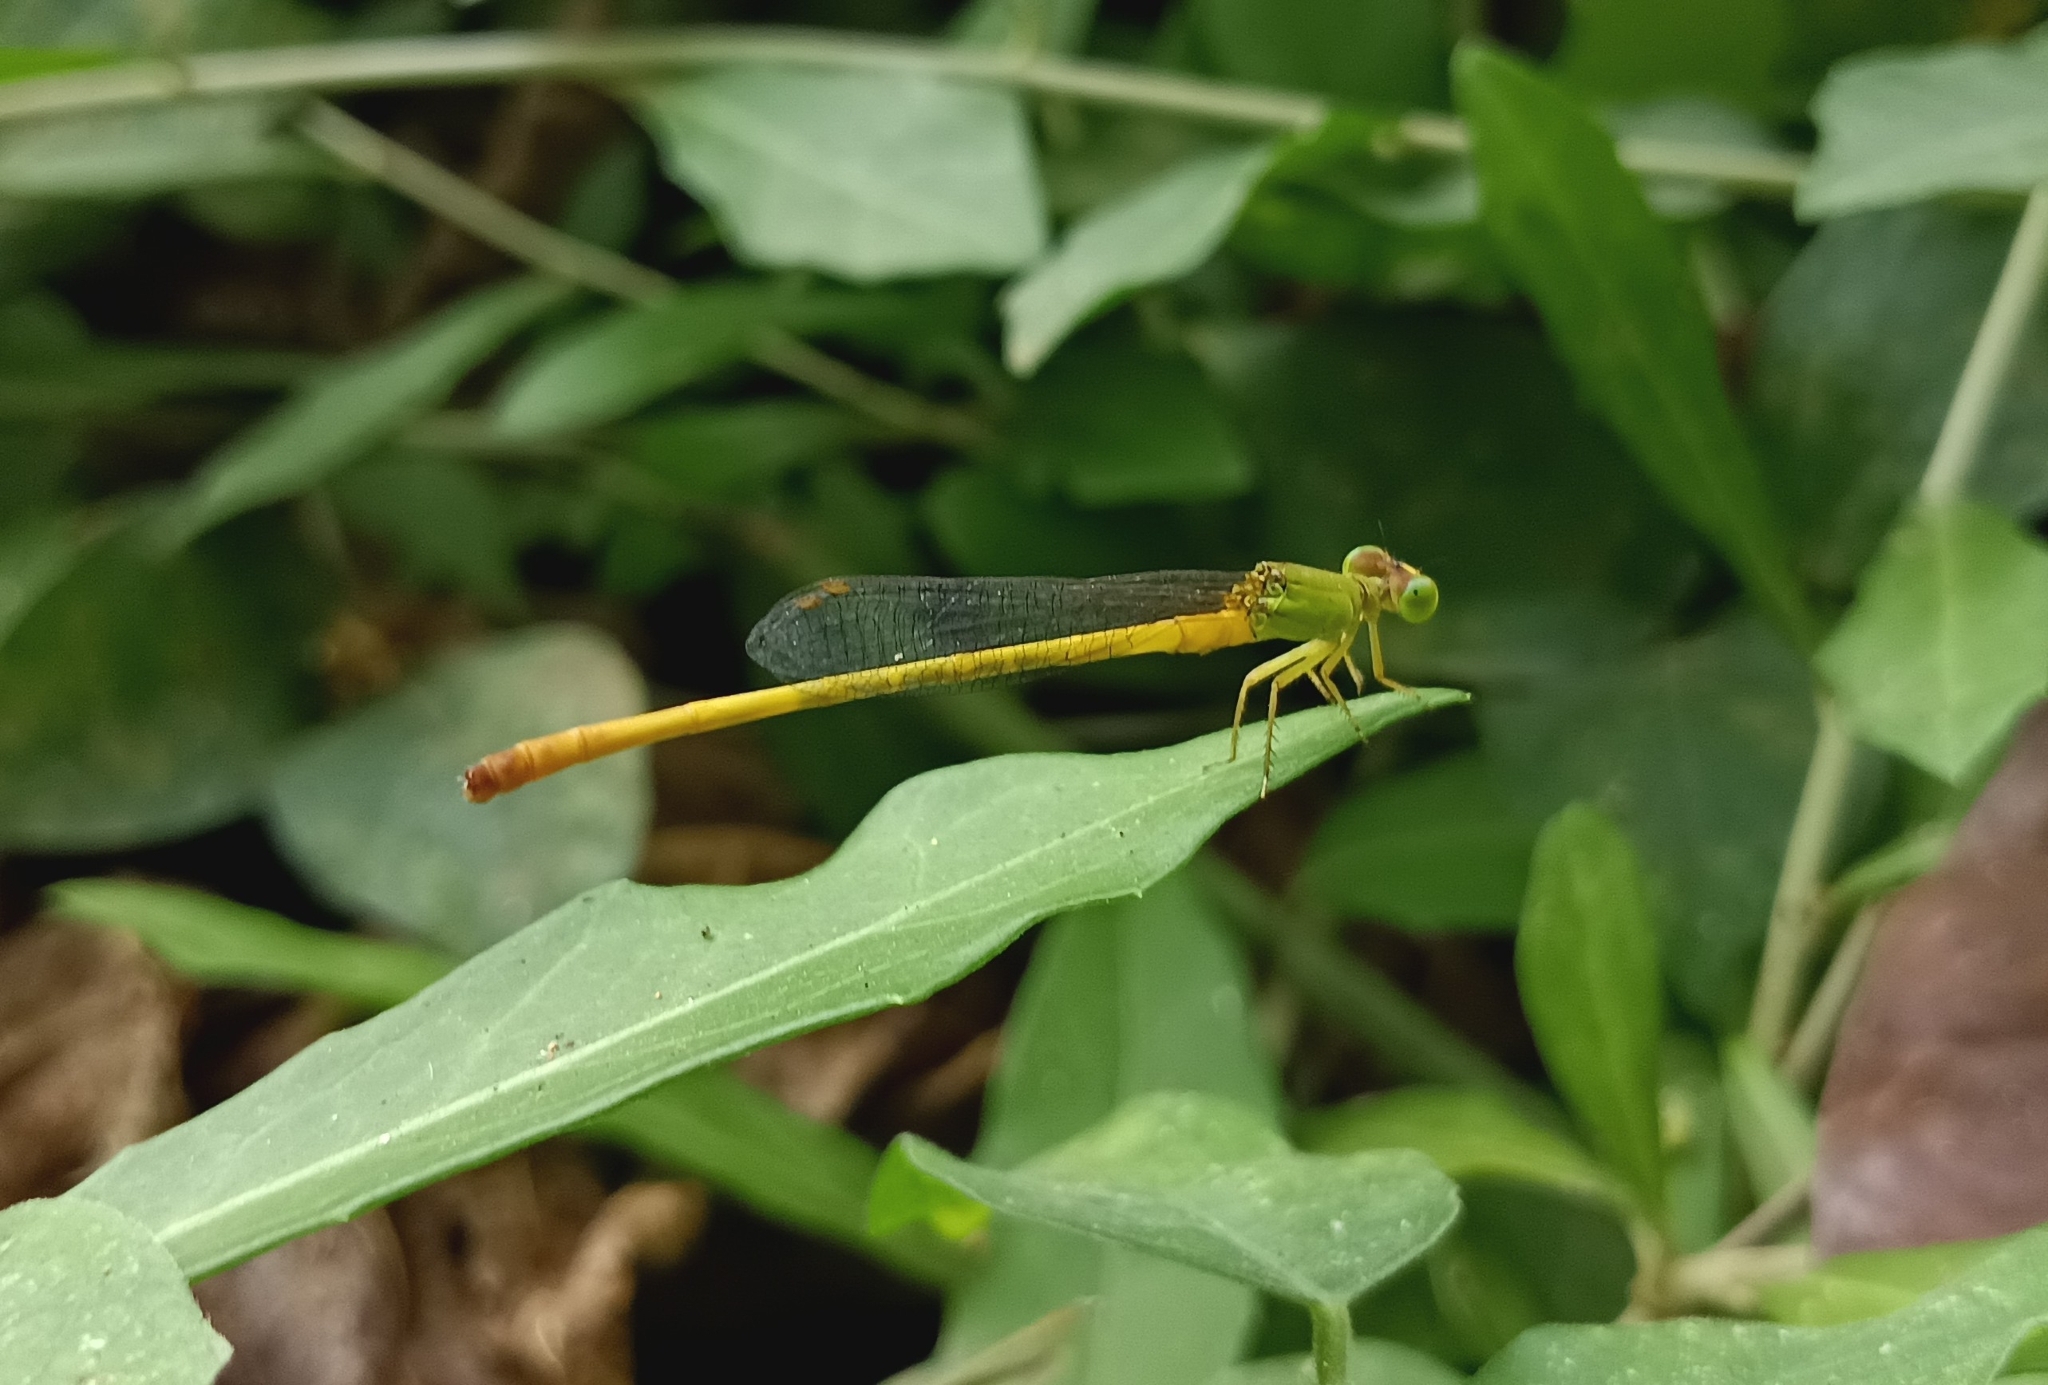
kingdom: Animalia
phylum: Arthropoda
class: Insecta
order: Odonata
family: Coenagrionidae
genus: Ceriagrion
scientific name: Ceriagrion coromandelianum
